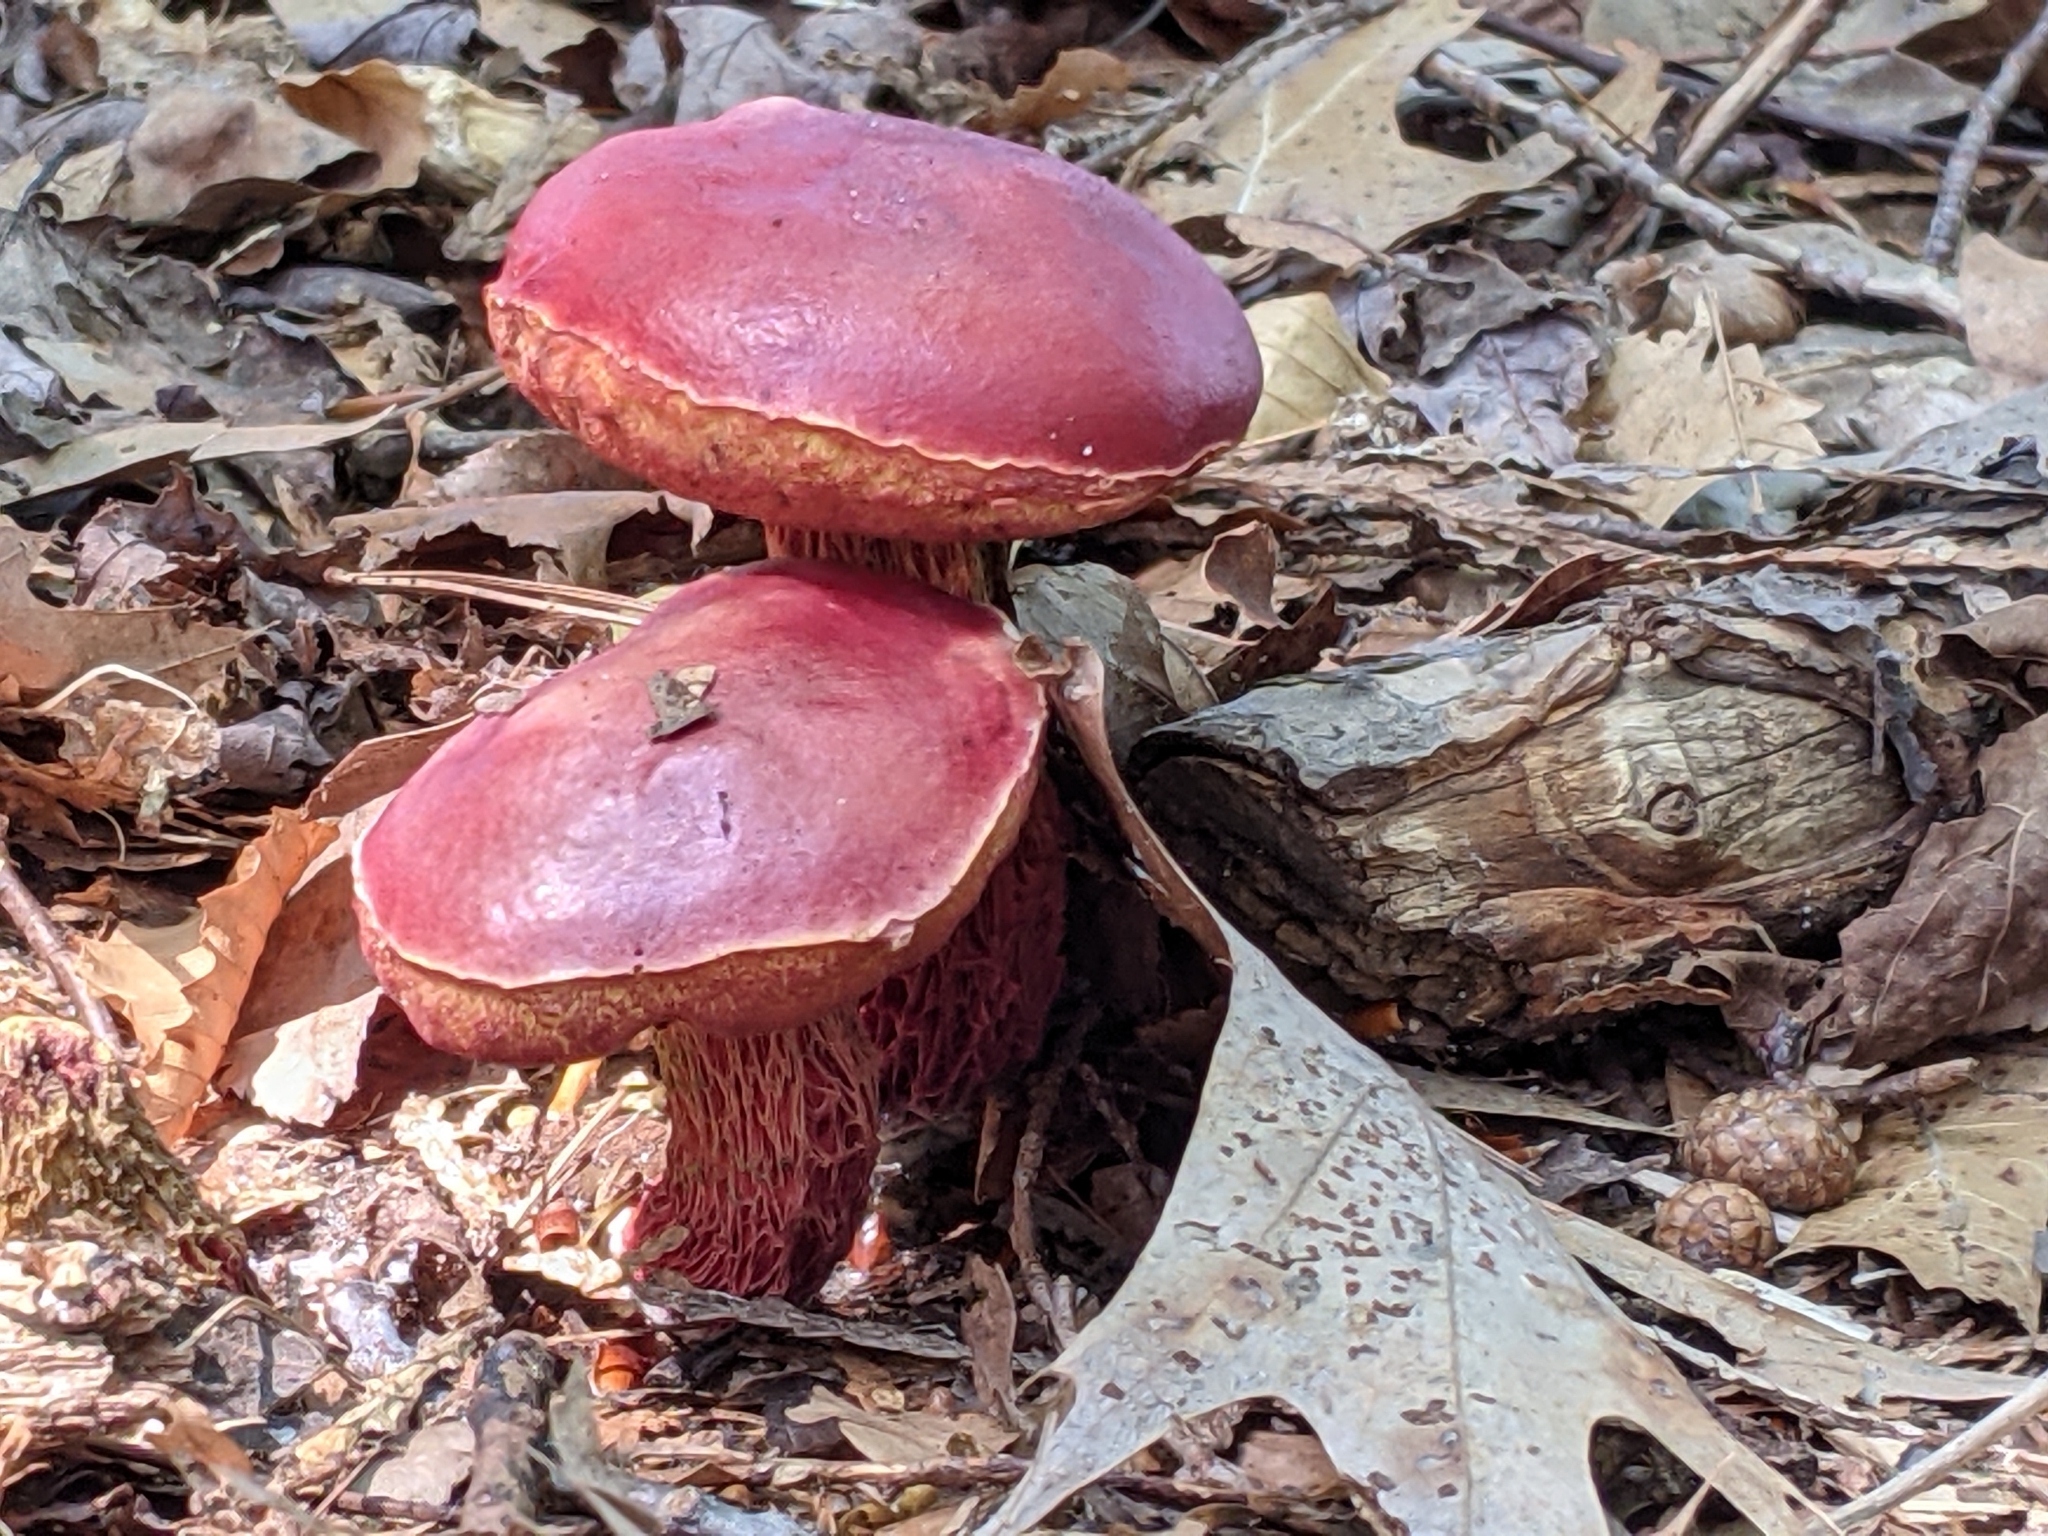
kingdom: Fungi
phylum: Basidiomycota
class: Agaricomycetes
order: Boletales
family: Boletaceae
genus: Butyriboletus
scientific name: Butyriboletus frostii
